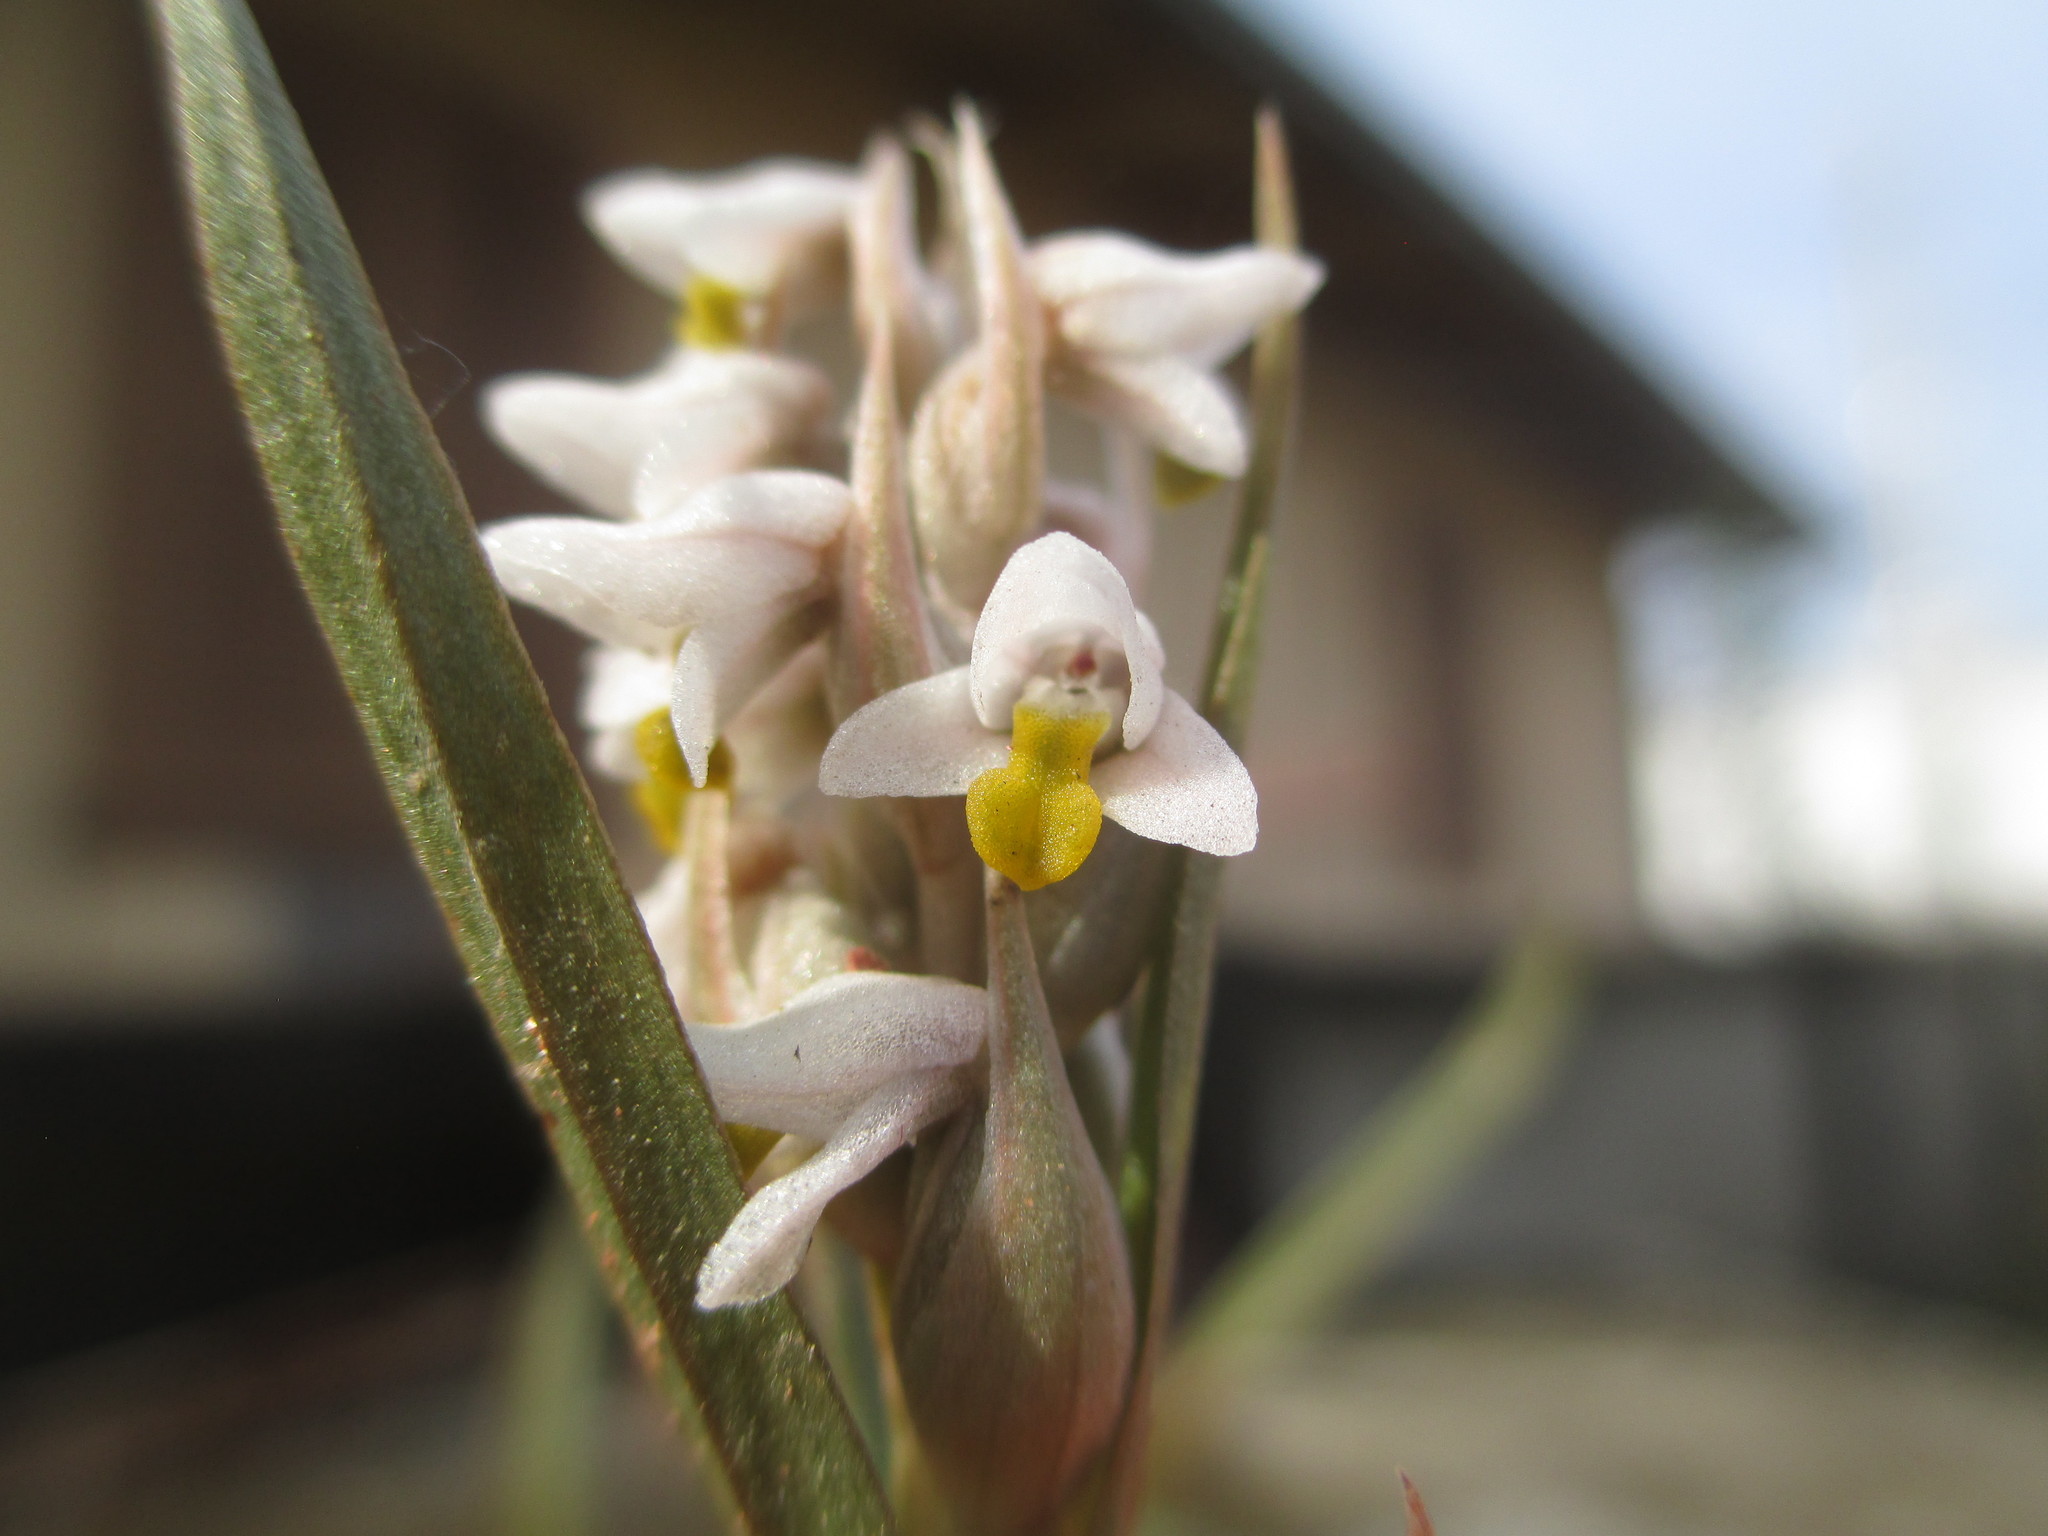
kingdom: Plantae
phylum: Tracheophyta
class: Liliopsida
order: Asparagales
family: Orchidaceae
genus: Zeuxine
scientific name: Zeuxine strateumatica
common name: Soldier's orchid
